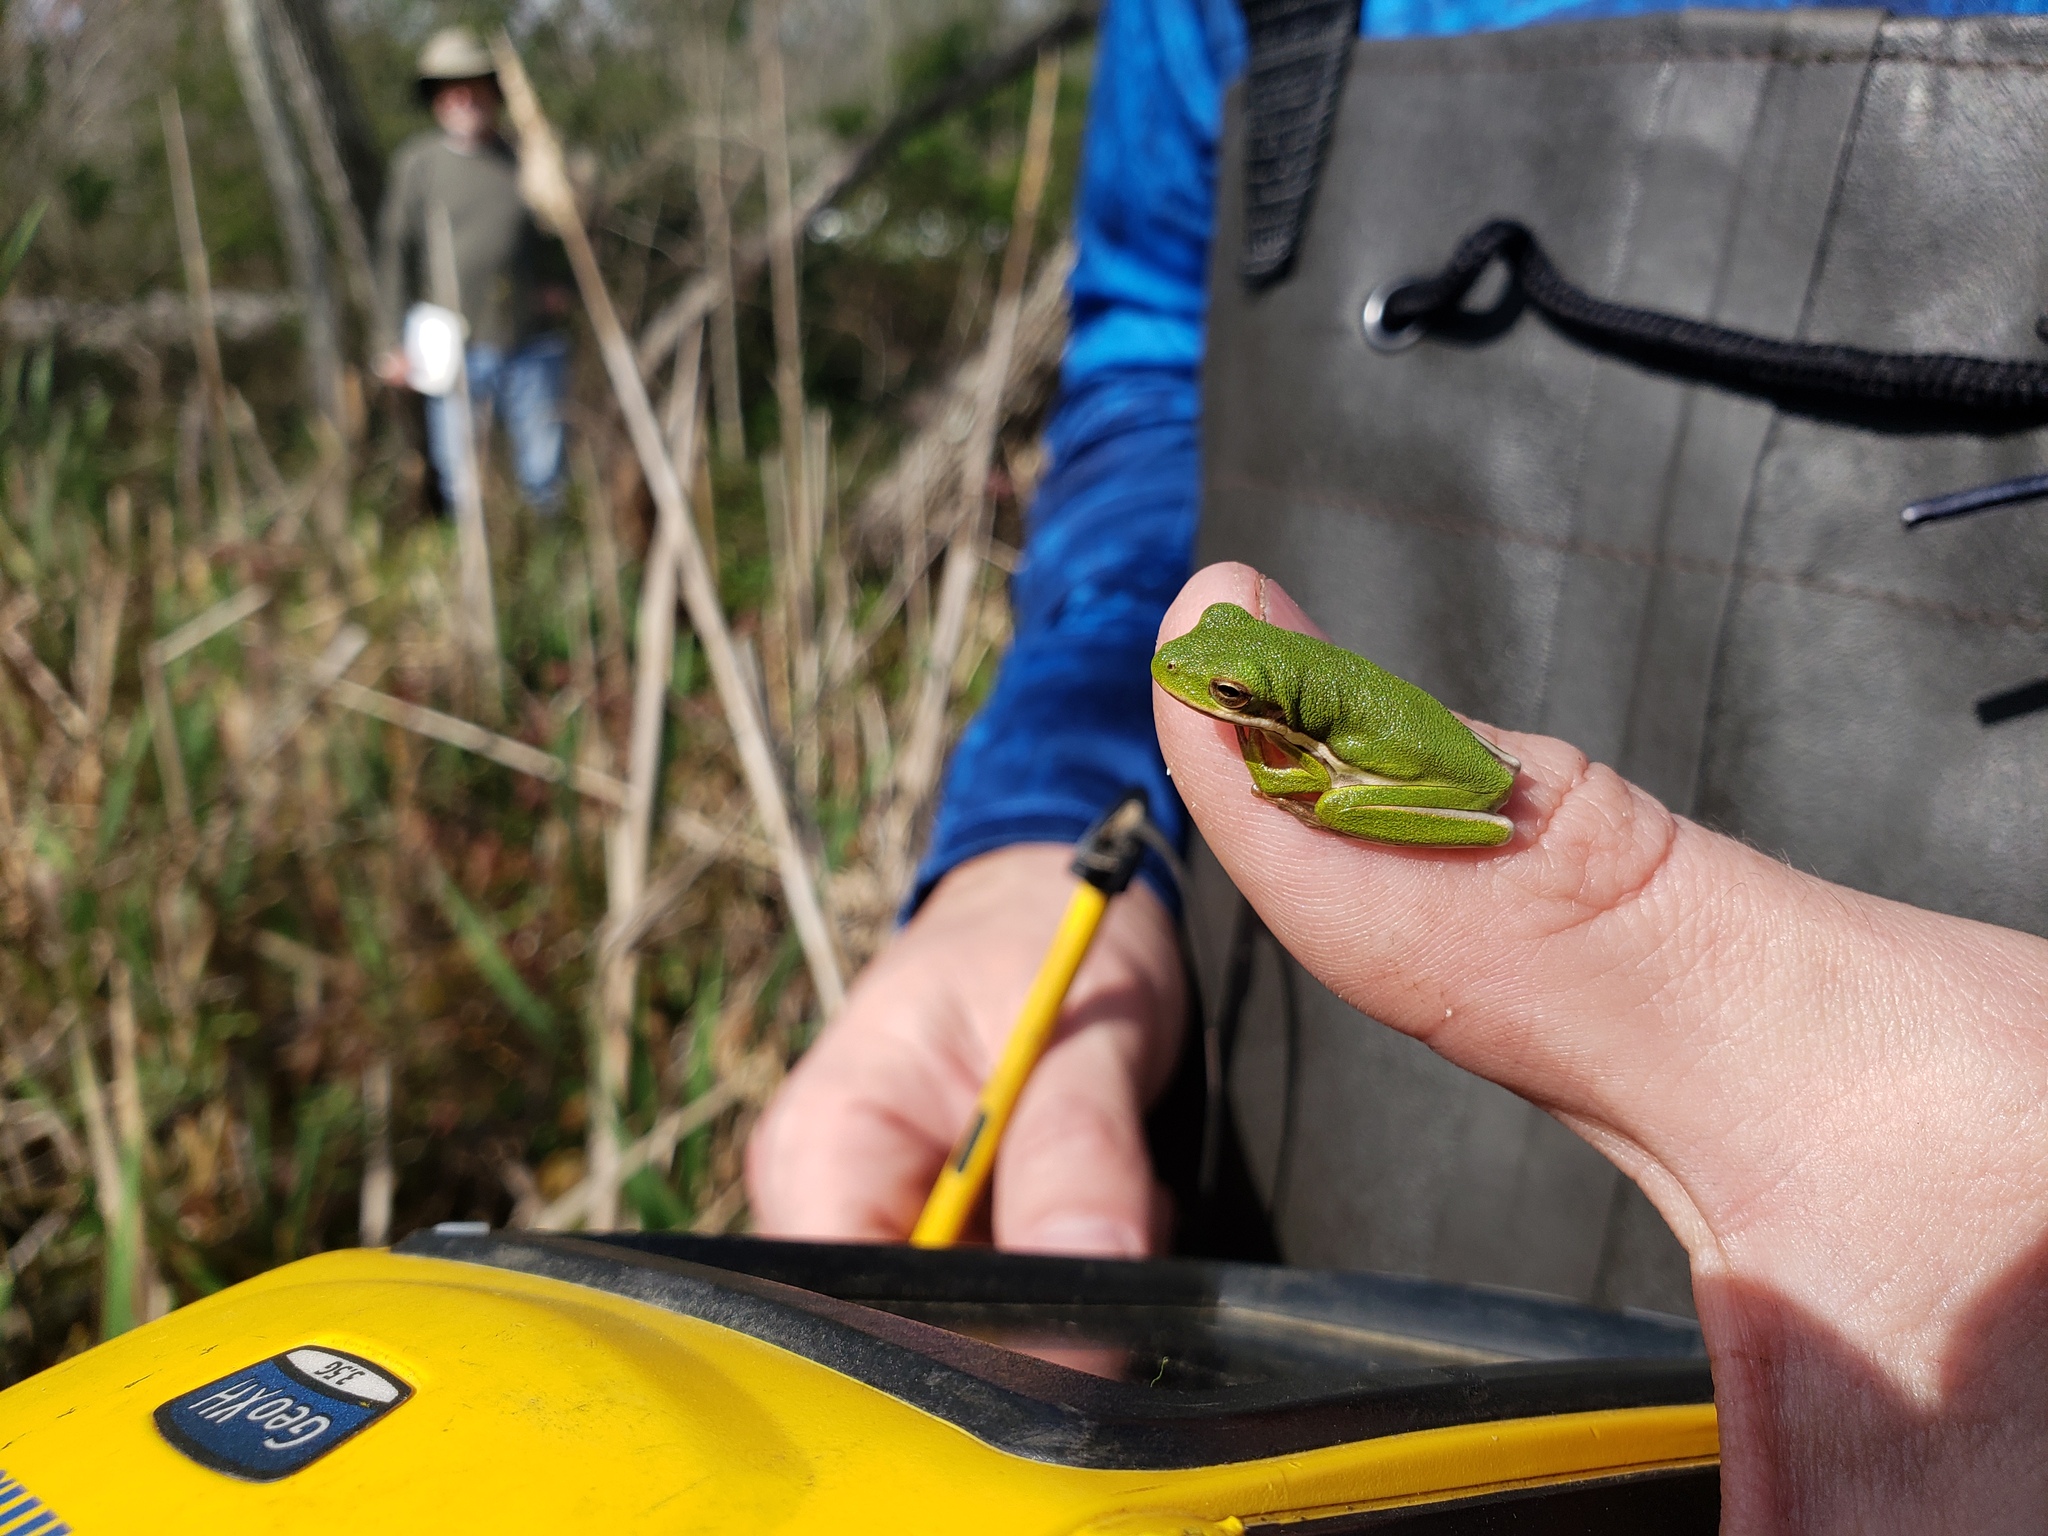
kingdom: Animalia
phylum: Chordata
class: Amphibia
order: Anura
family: Hylidae
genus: Dryophytes
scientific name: Dryophytes cinereus
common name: Green treefrog
